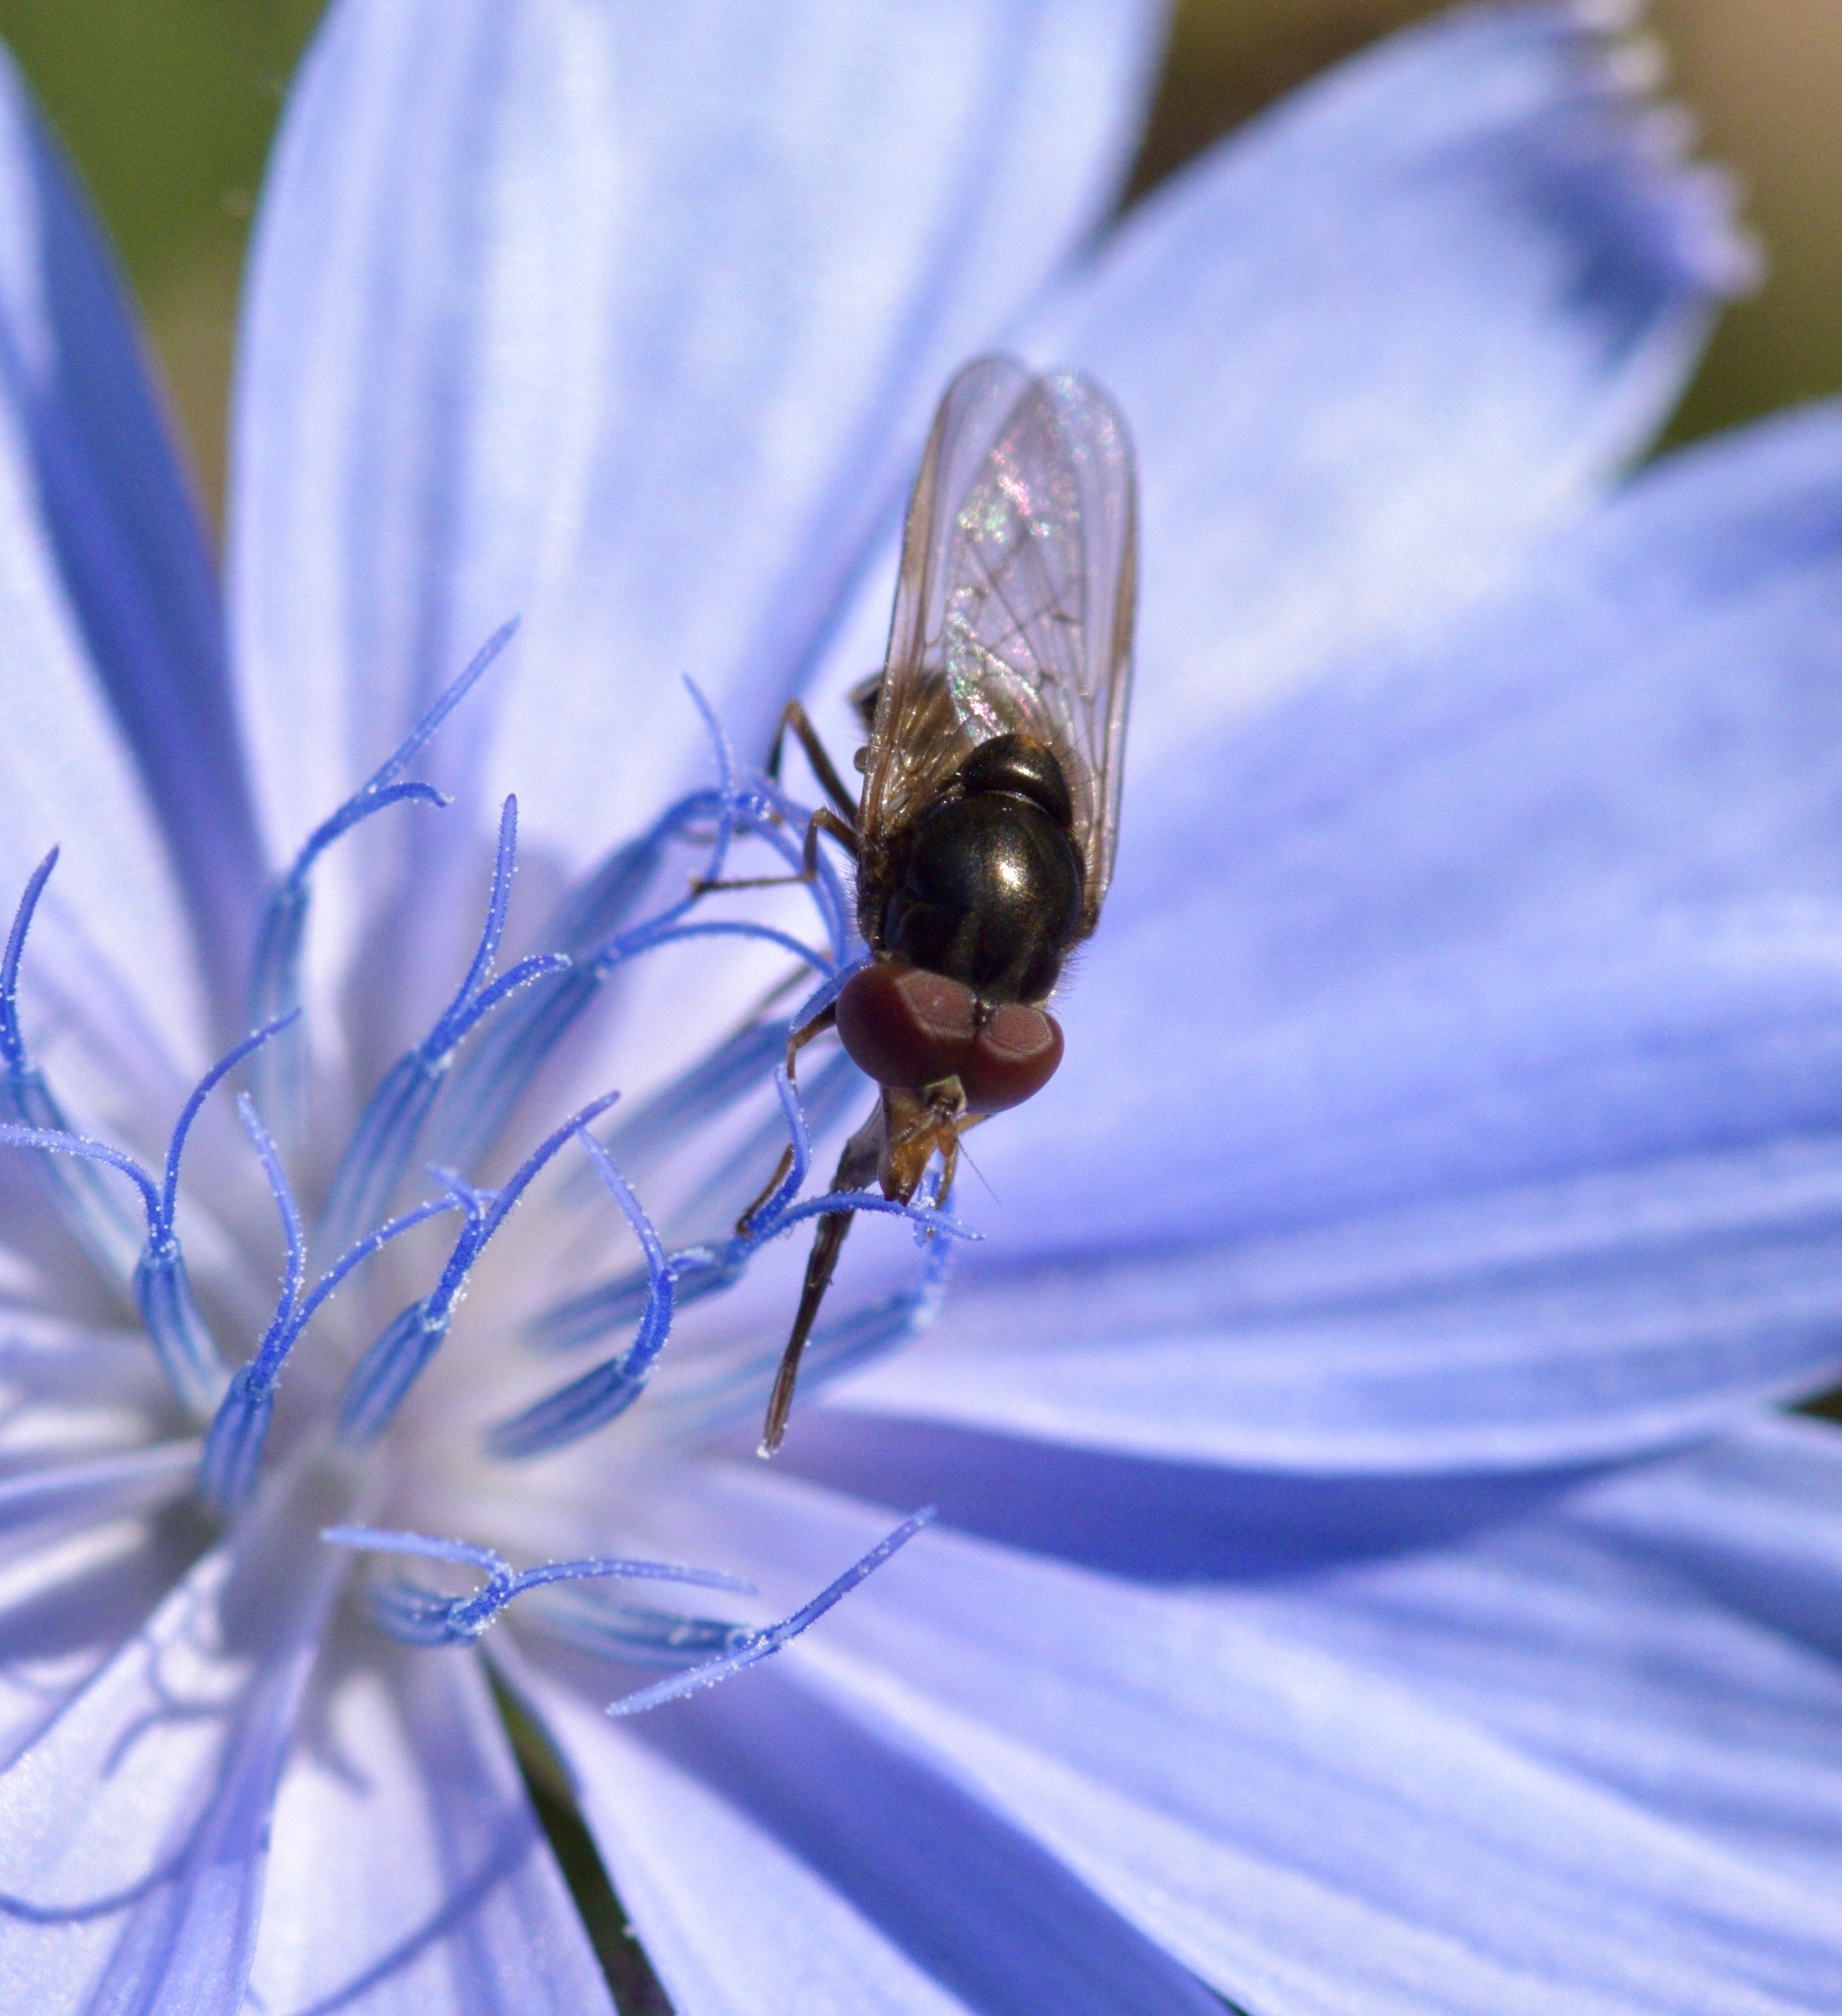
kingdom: Animalia
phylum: Arthropoda
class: Insecta
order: Diptera
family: Syrphidae
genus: Rhingia
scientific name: Rhingia nasica
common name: American snout fly
